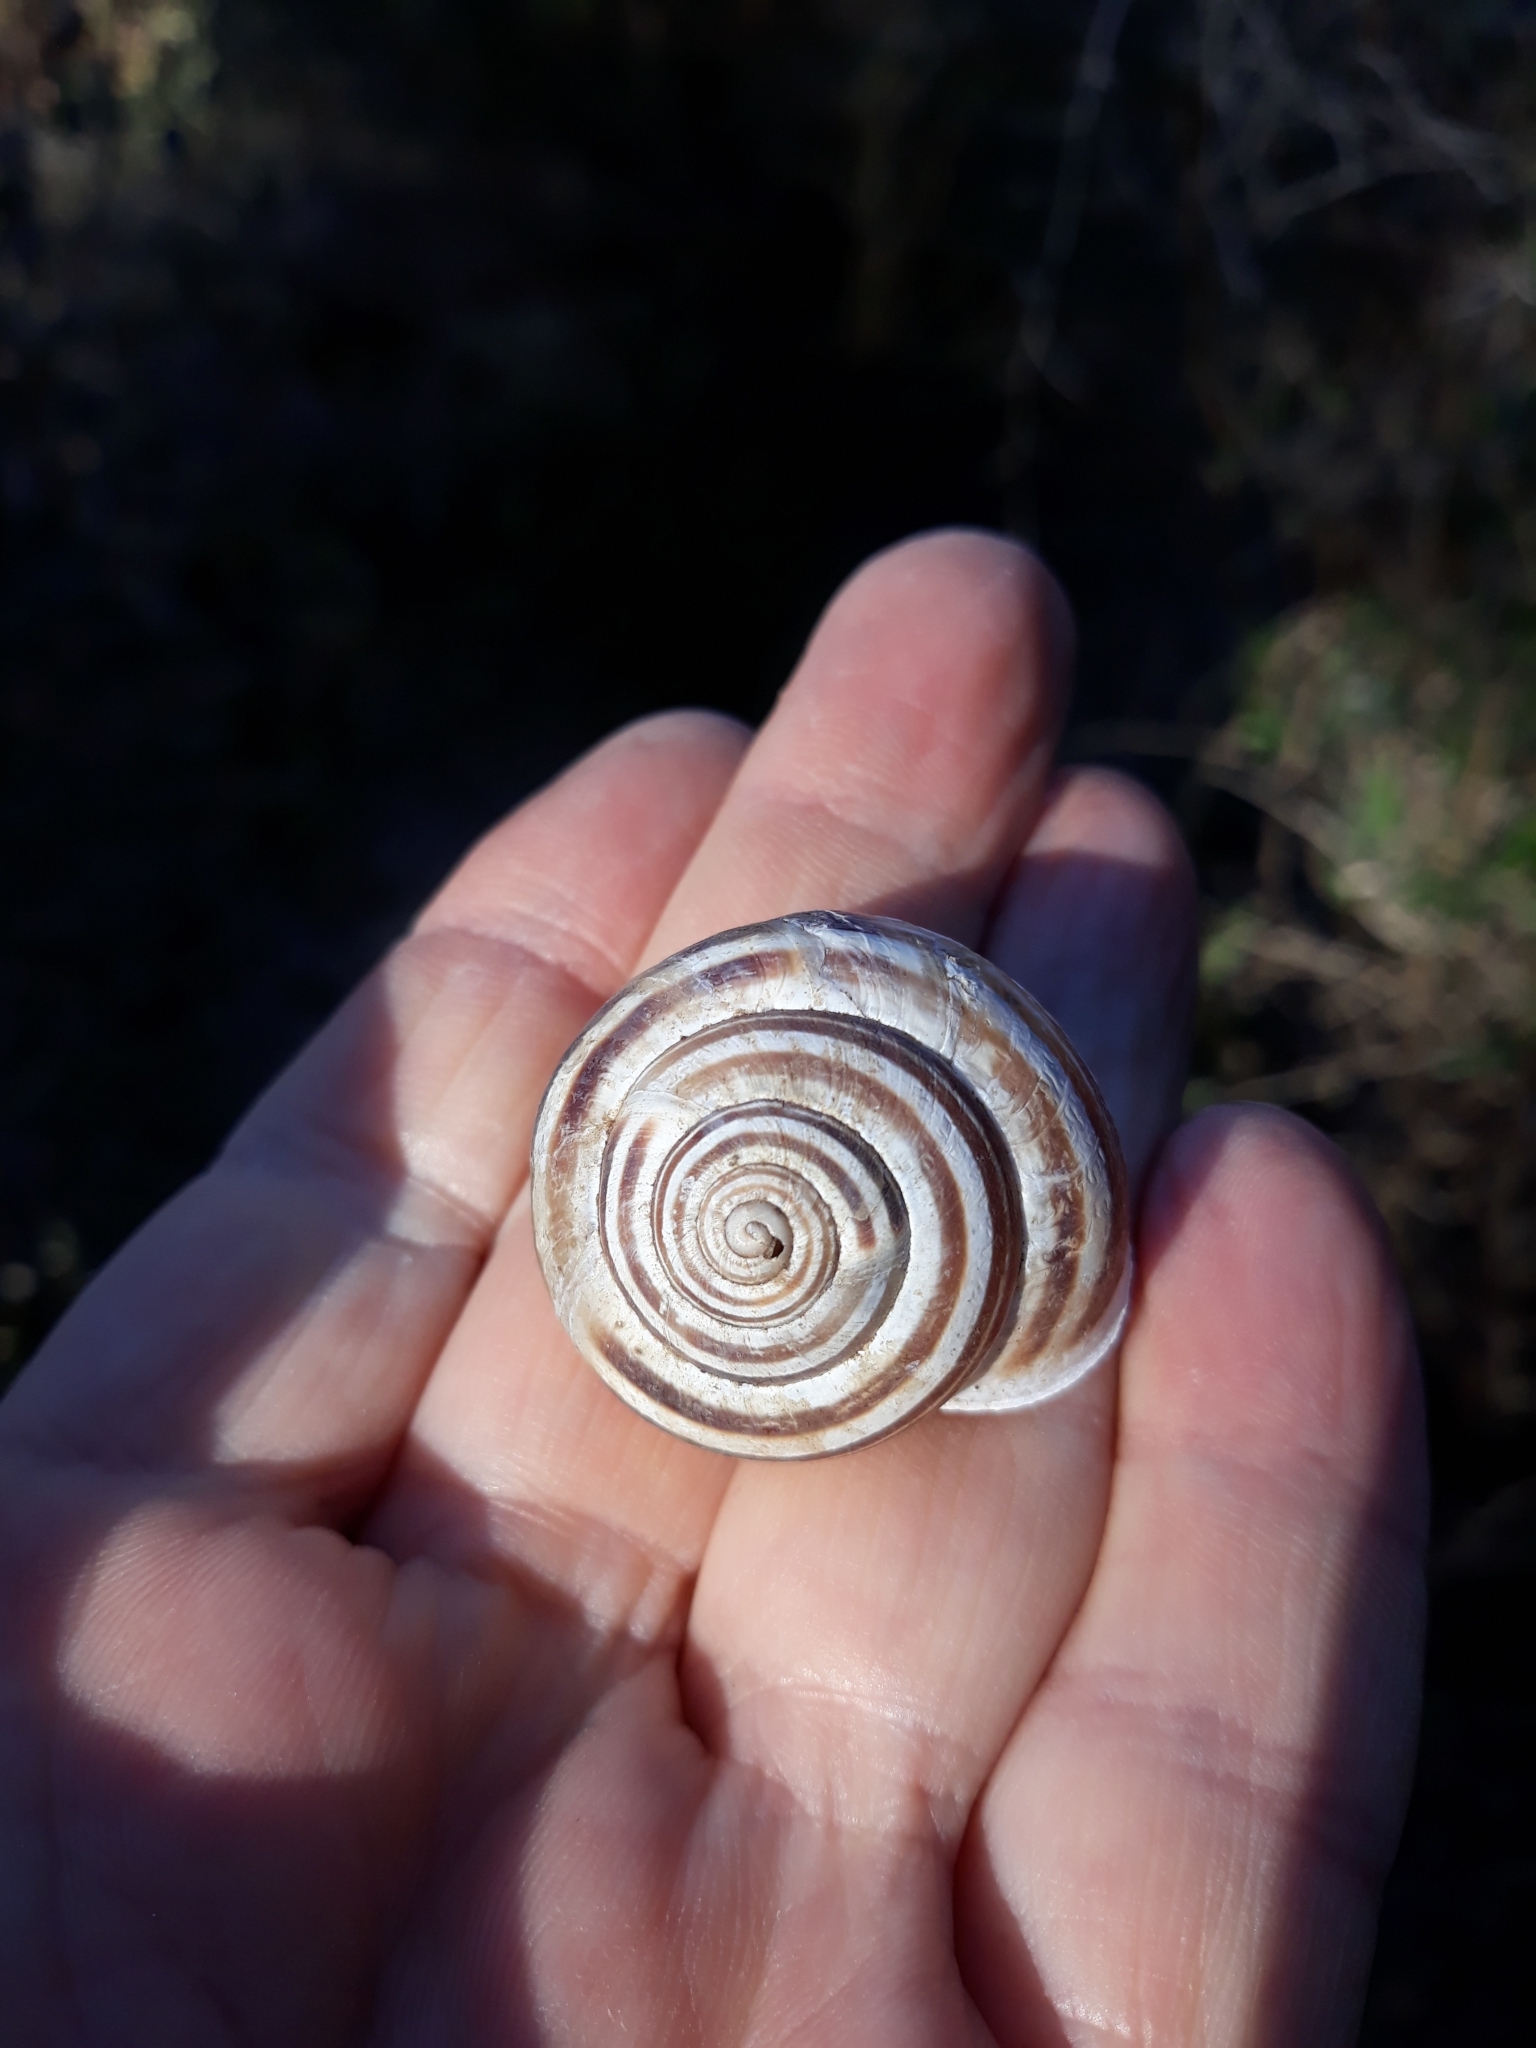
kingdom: Animalia
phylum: Mollusca
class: Gastropoda
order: Stylommatophora
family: Helicidae
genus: Eobania
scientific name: Eobania constantina
